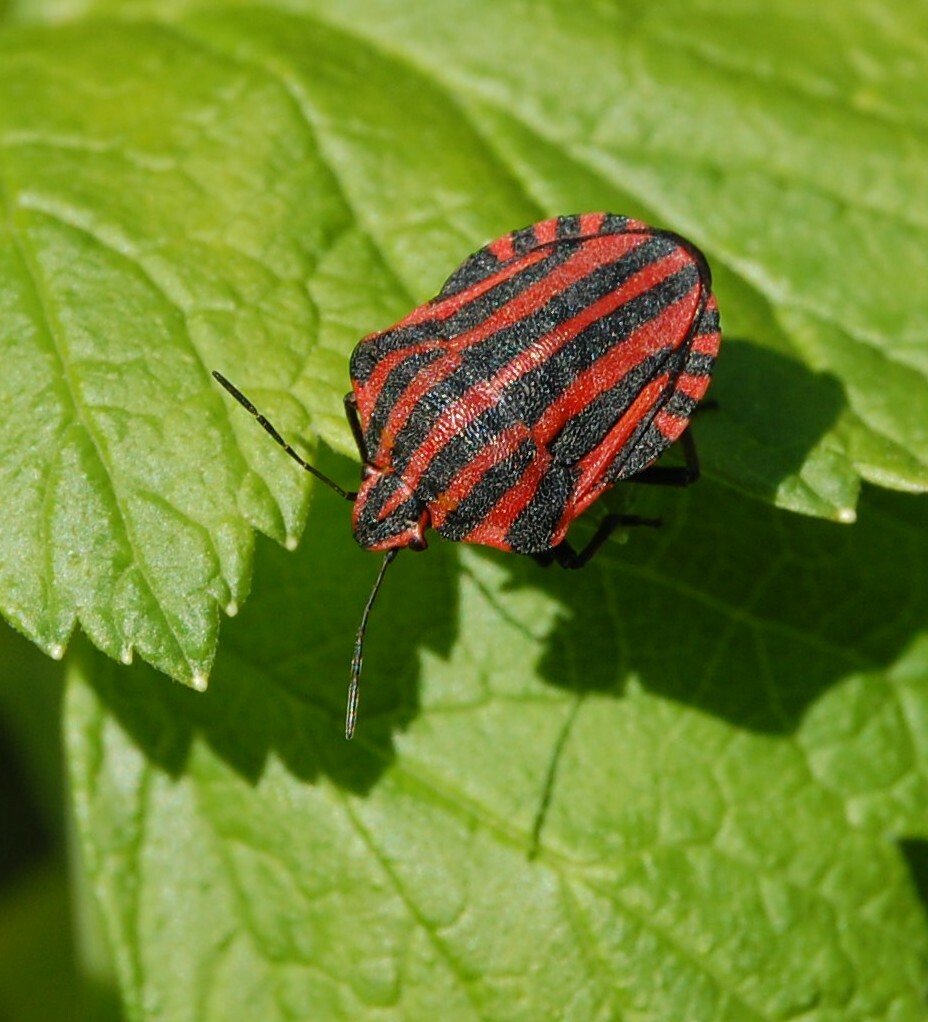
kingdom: Animalia
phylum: Arthropoda
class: Insecta
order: Hemiptera
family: Pentatomidae
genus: Graphosoma
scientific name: Graphosoma italicum
